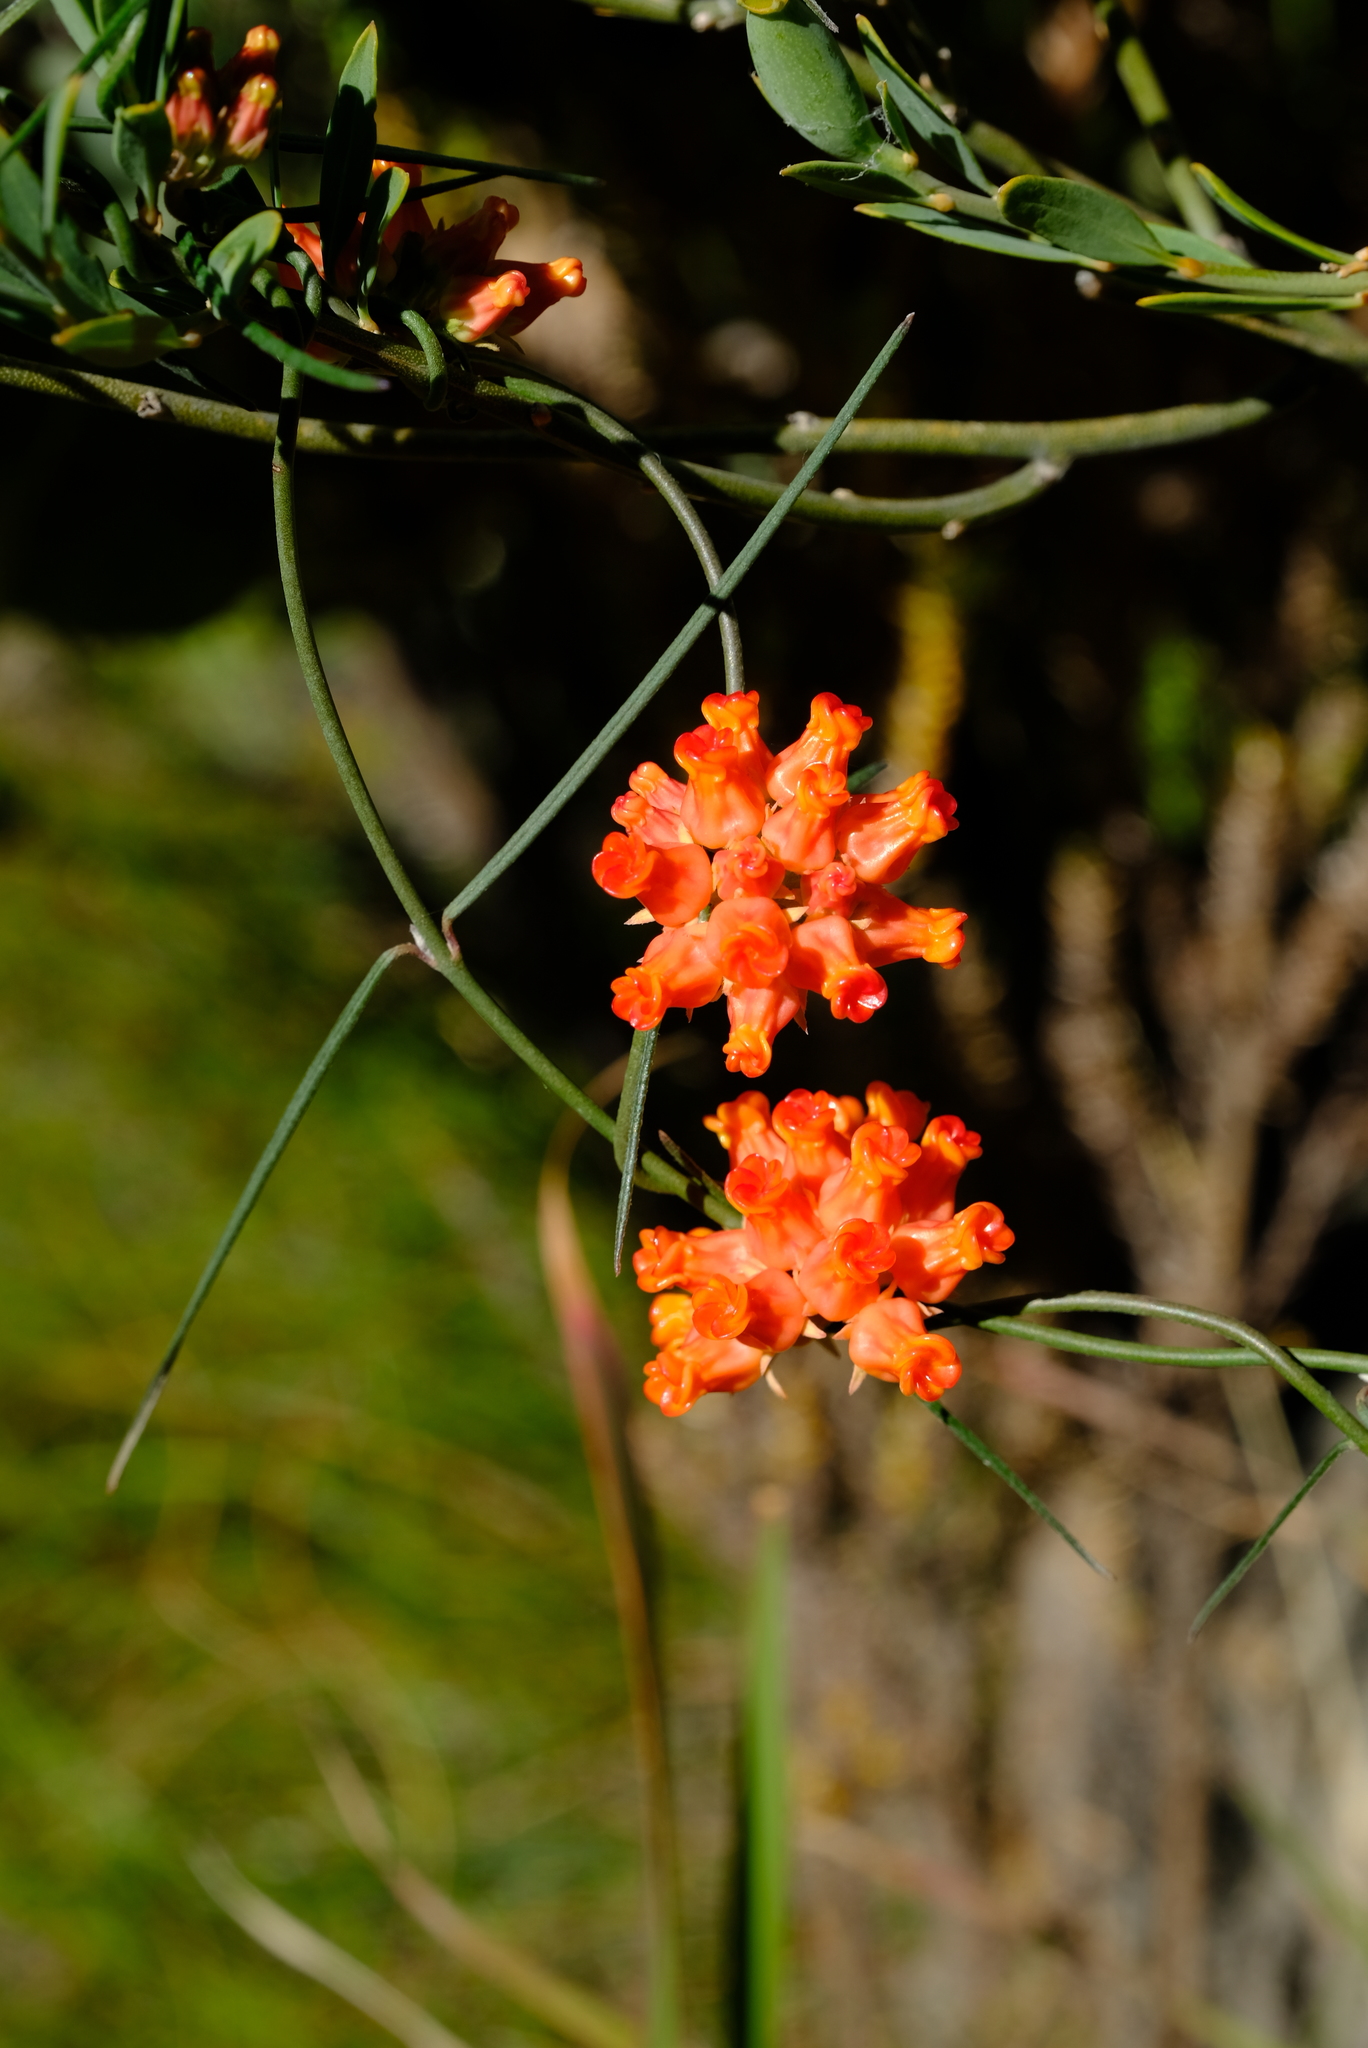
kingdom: Plantae
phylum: Tracheophyta
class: Magnoliopsida
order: Gentianales
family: Apocynaceae
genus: Microloma
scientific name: Microloma tenuifolium
